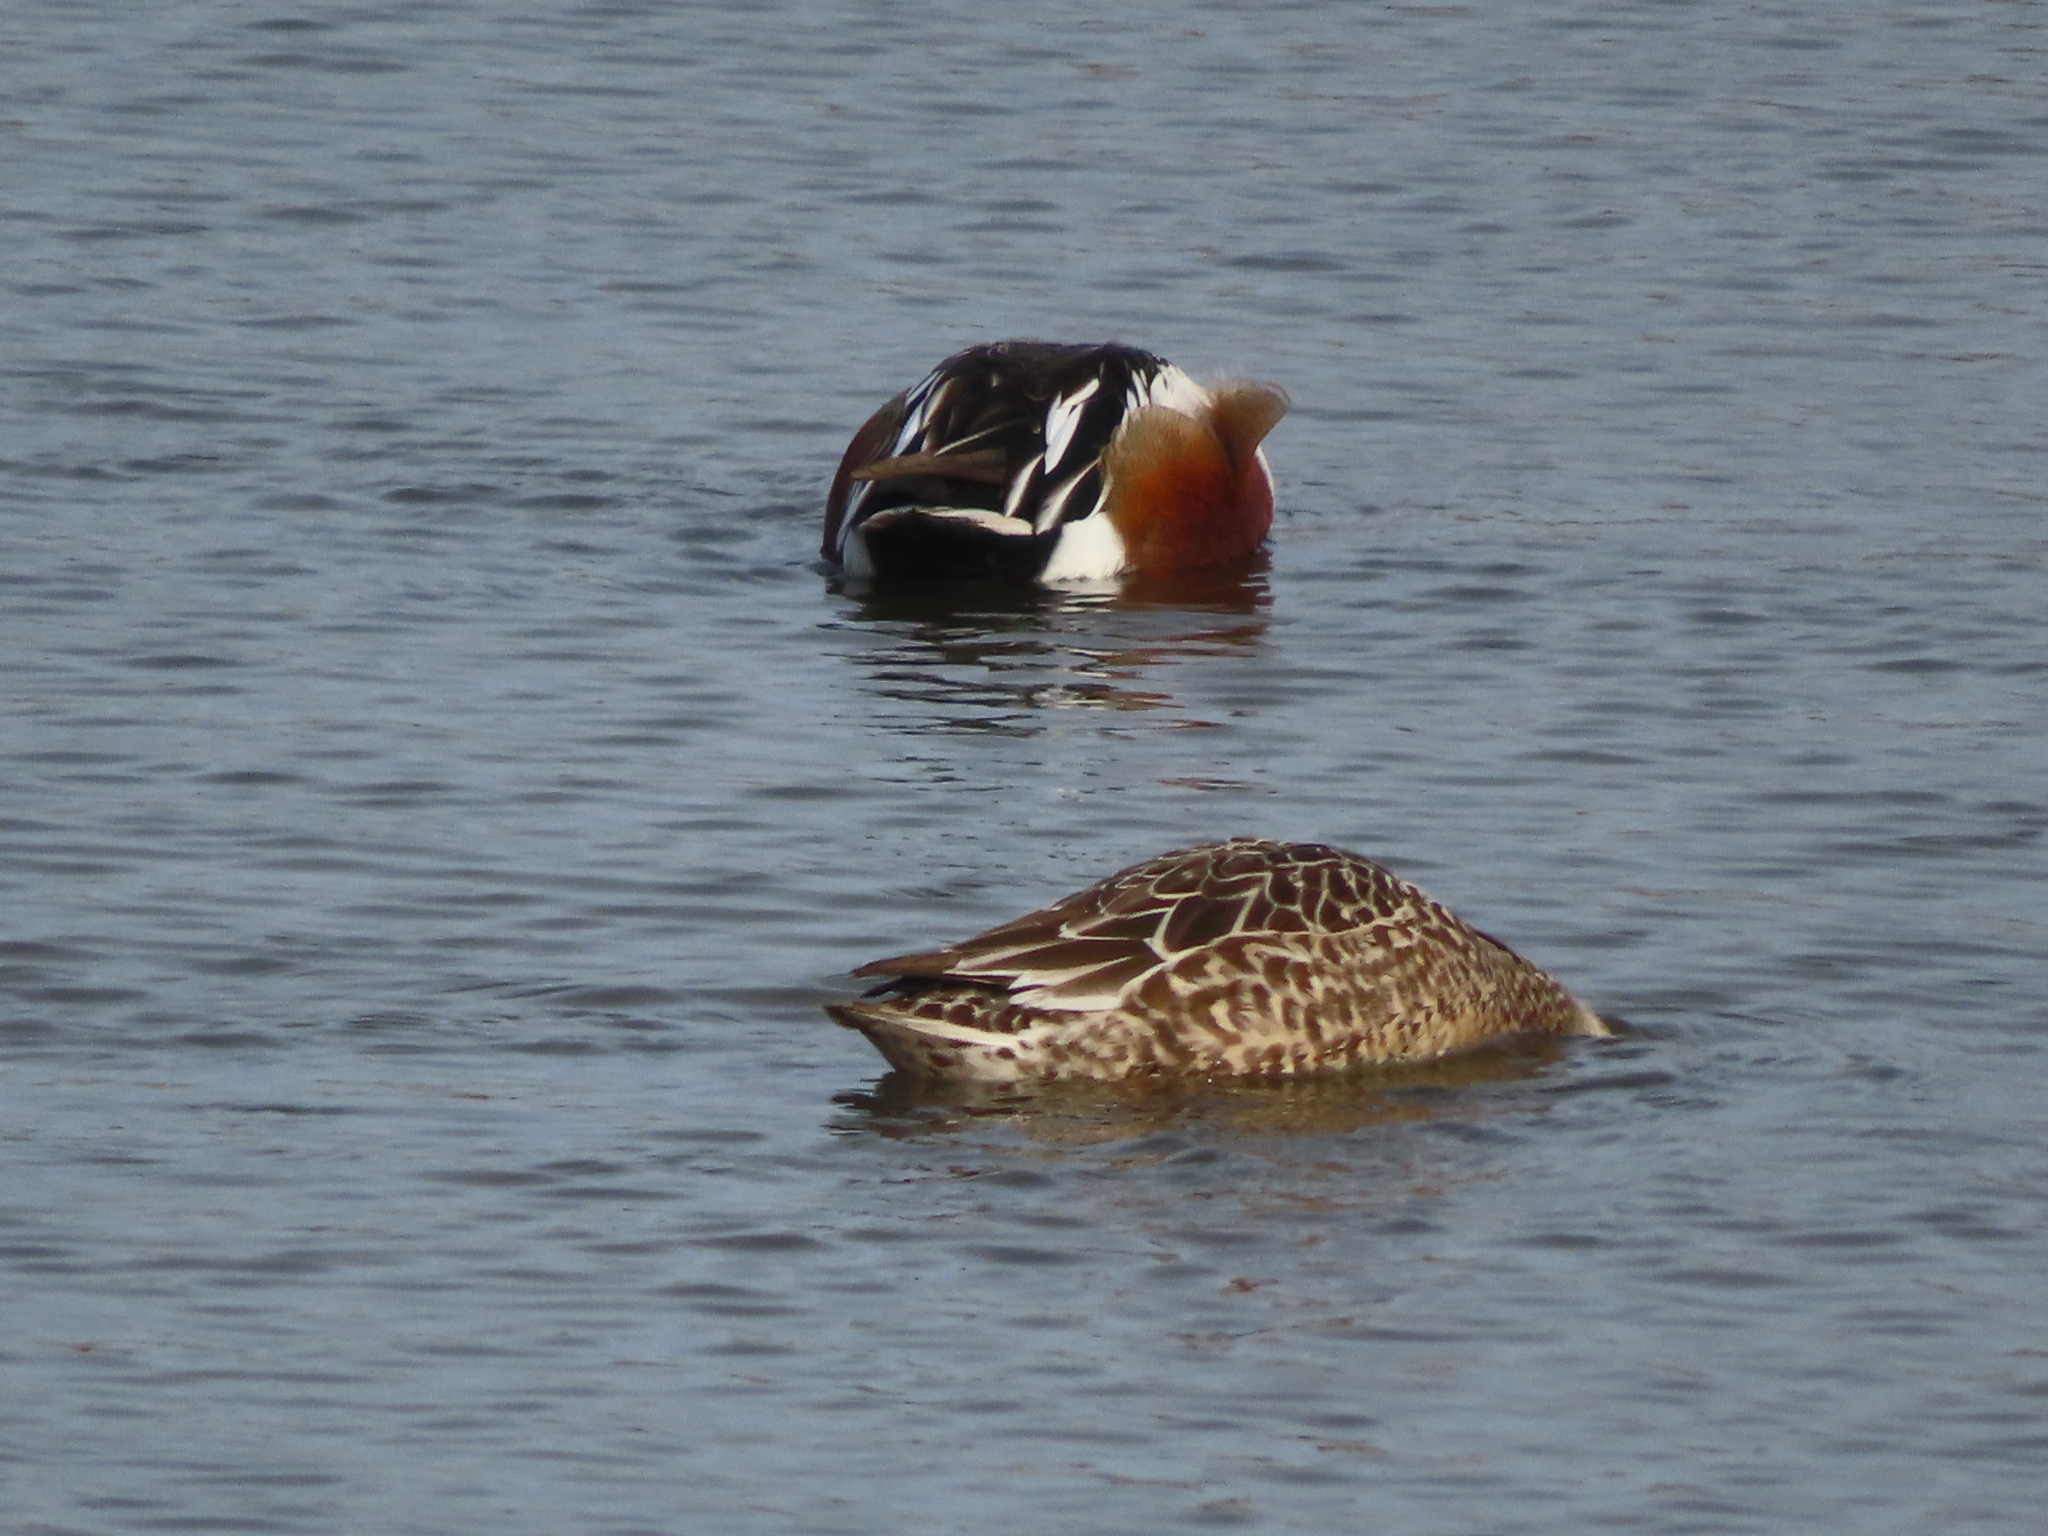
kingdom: Animalia
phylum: Chordata
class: Aves
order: Anseriformes
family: Anatidae
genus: Spatula
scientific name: Spatula clypeata
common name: Northern shoveler
